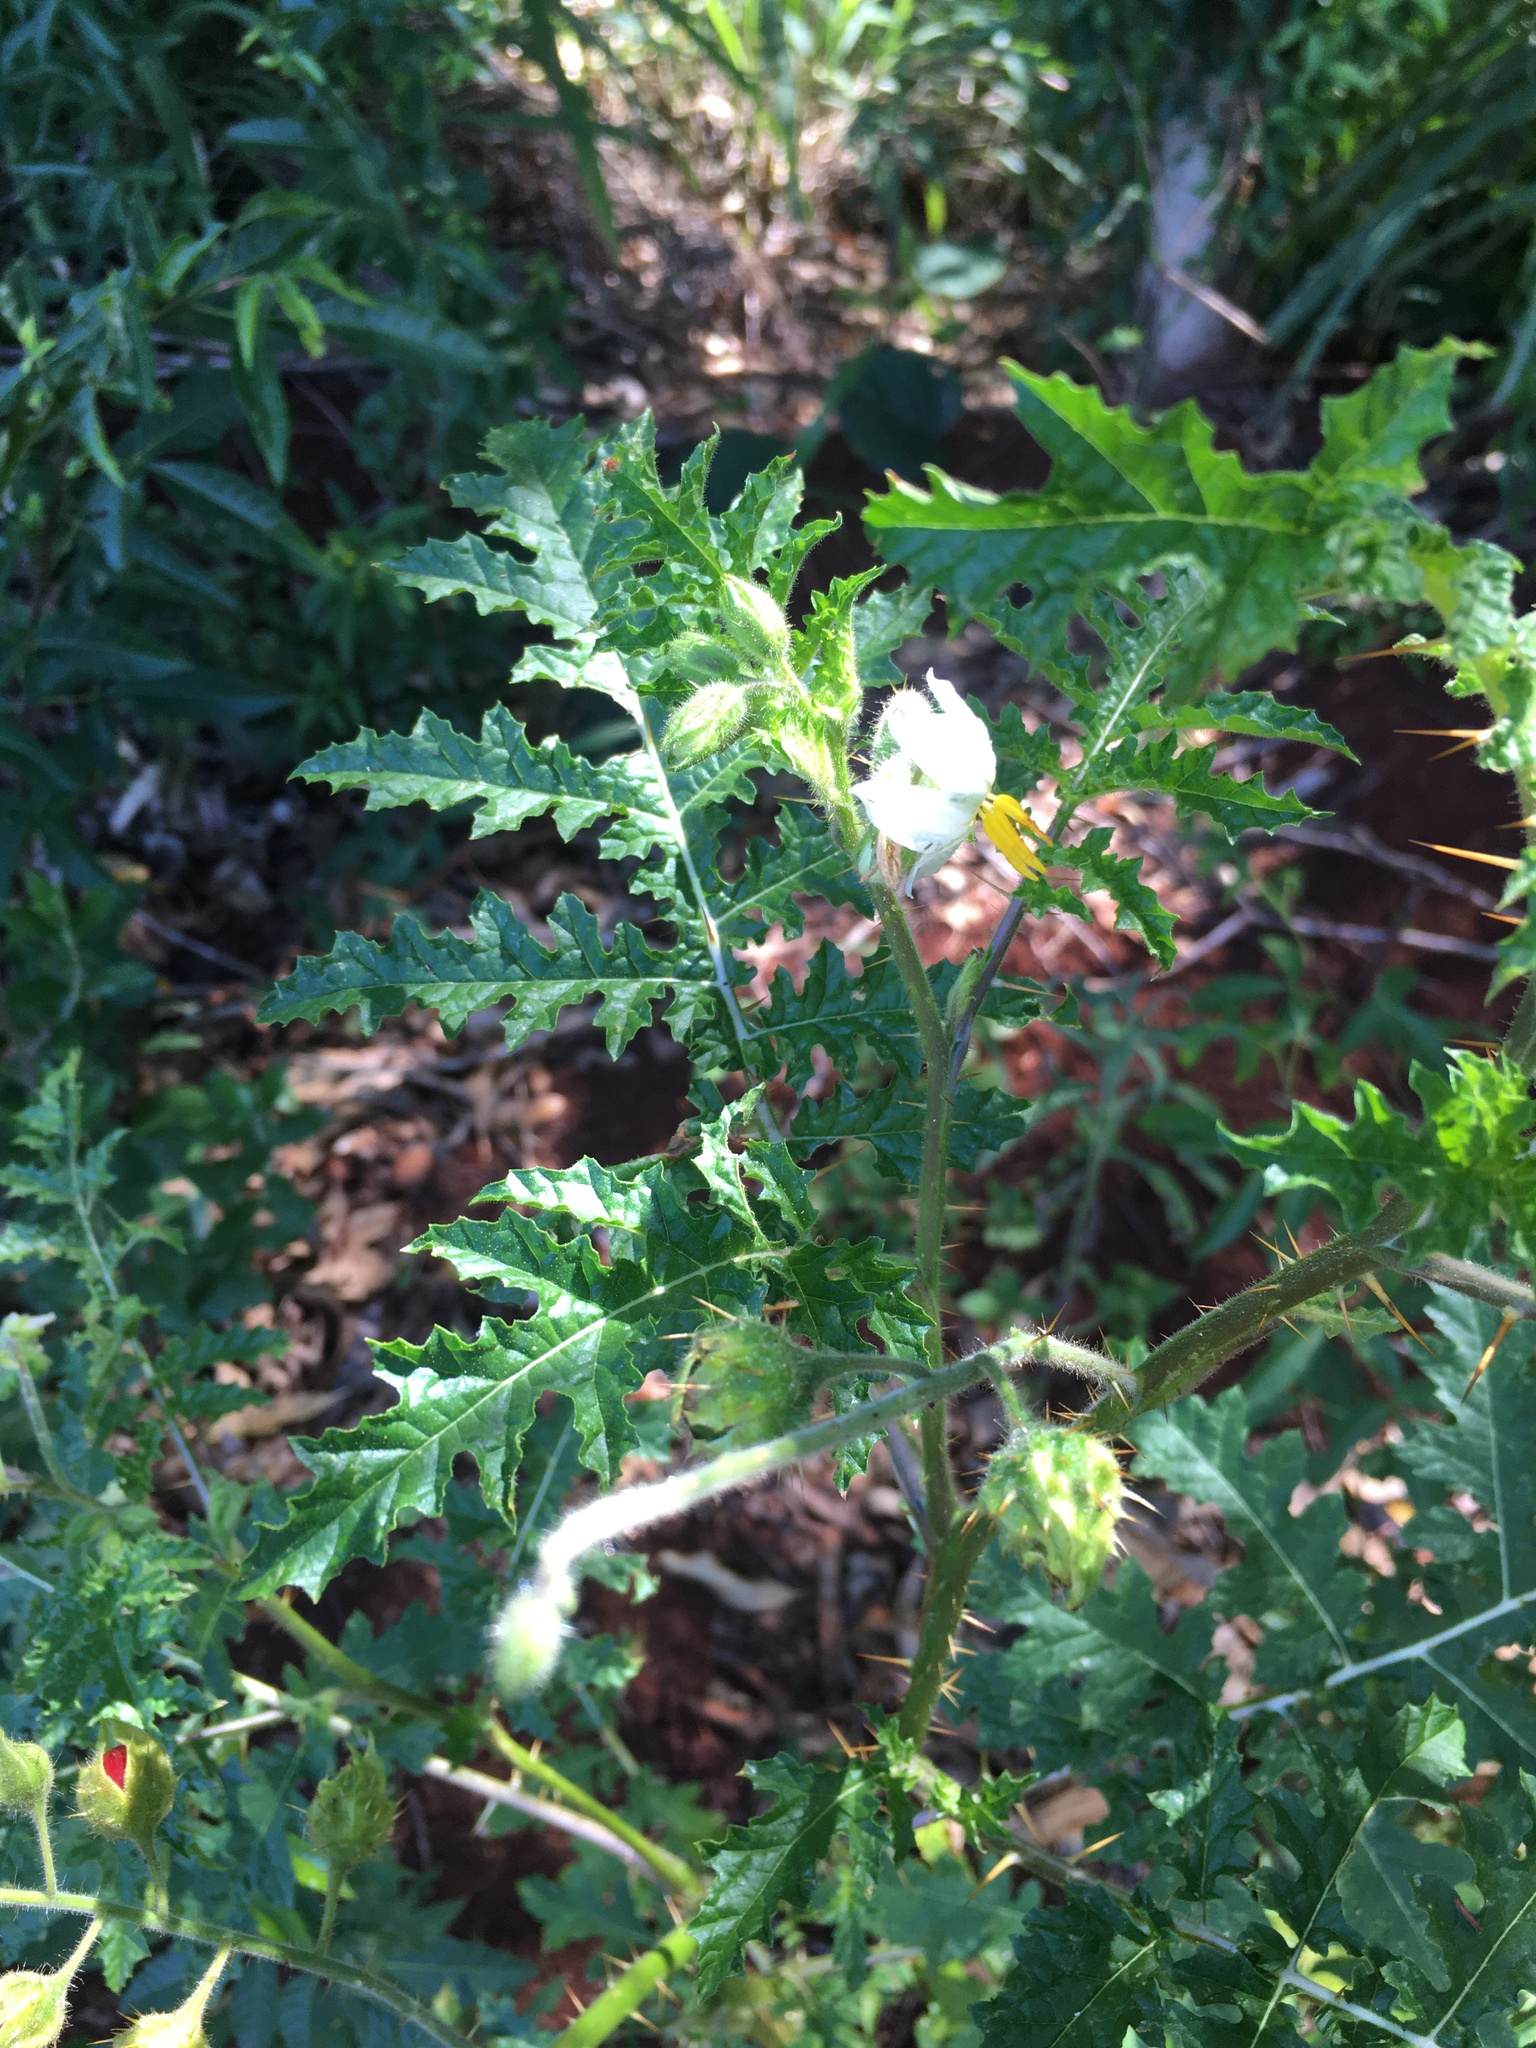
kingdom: Plantae
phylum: Tracheophyta
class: Magnoliopsida
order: Solanales
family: Solanaceae
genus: Solanum
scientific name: Solanum sisymbriifolium
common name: Red buffalo-bur
